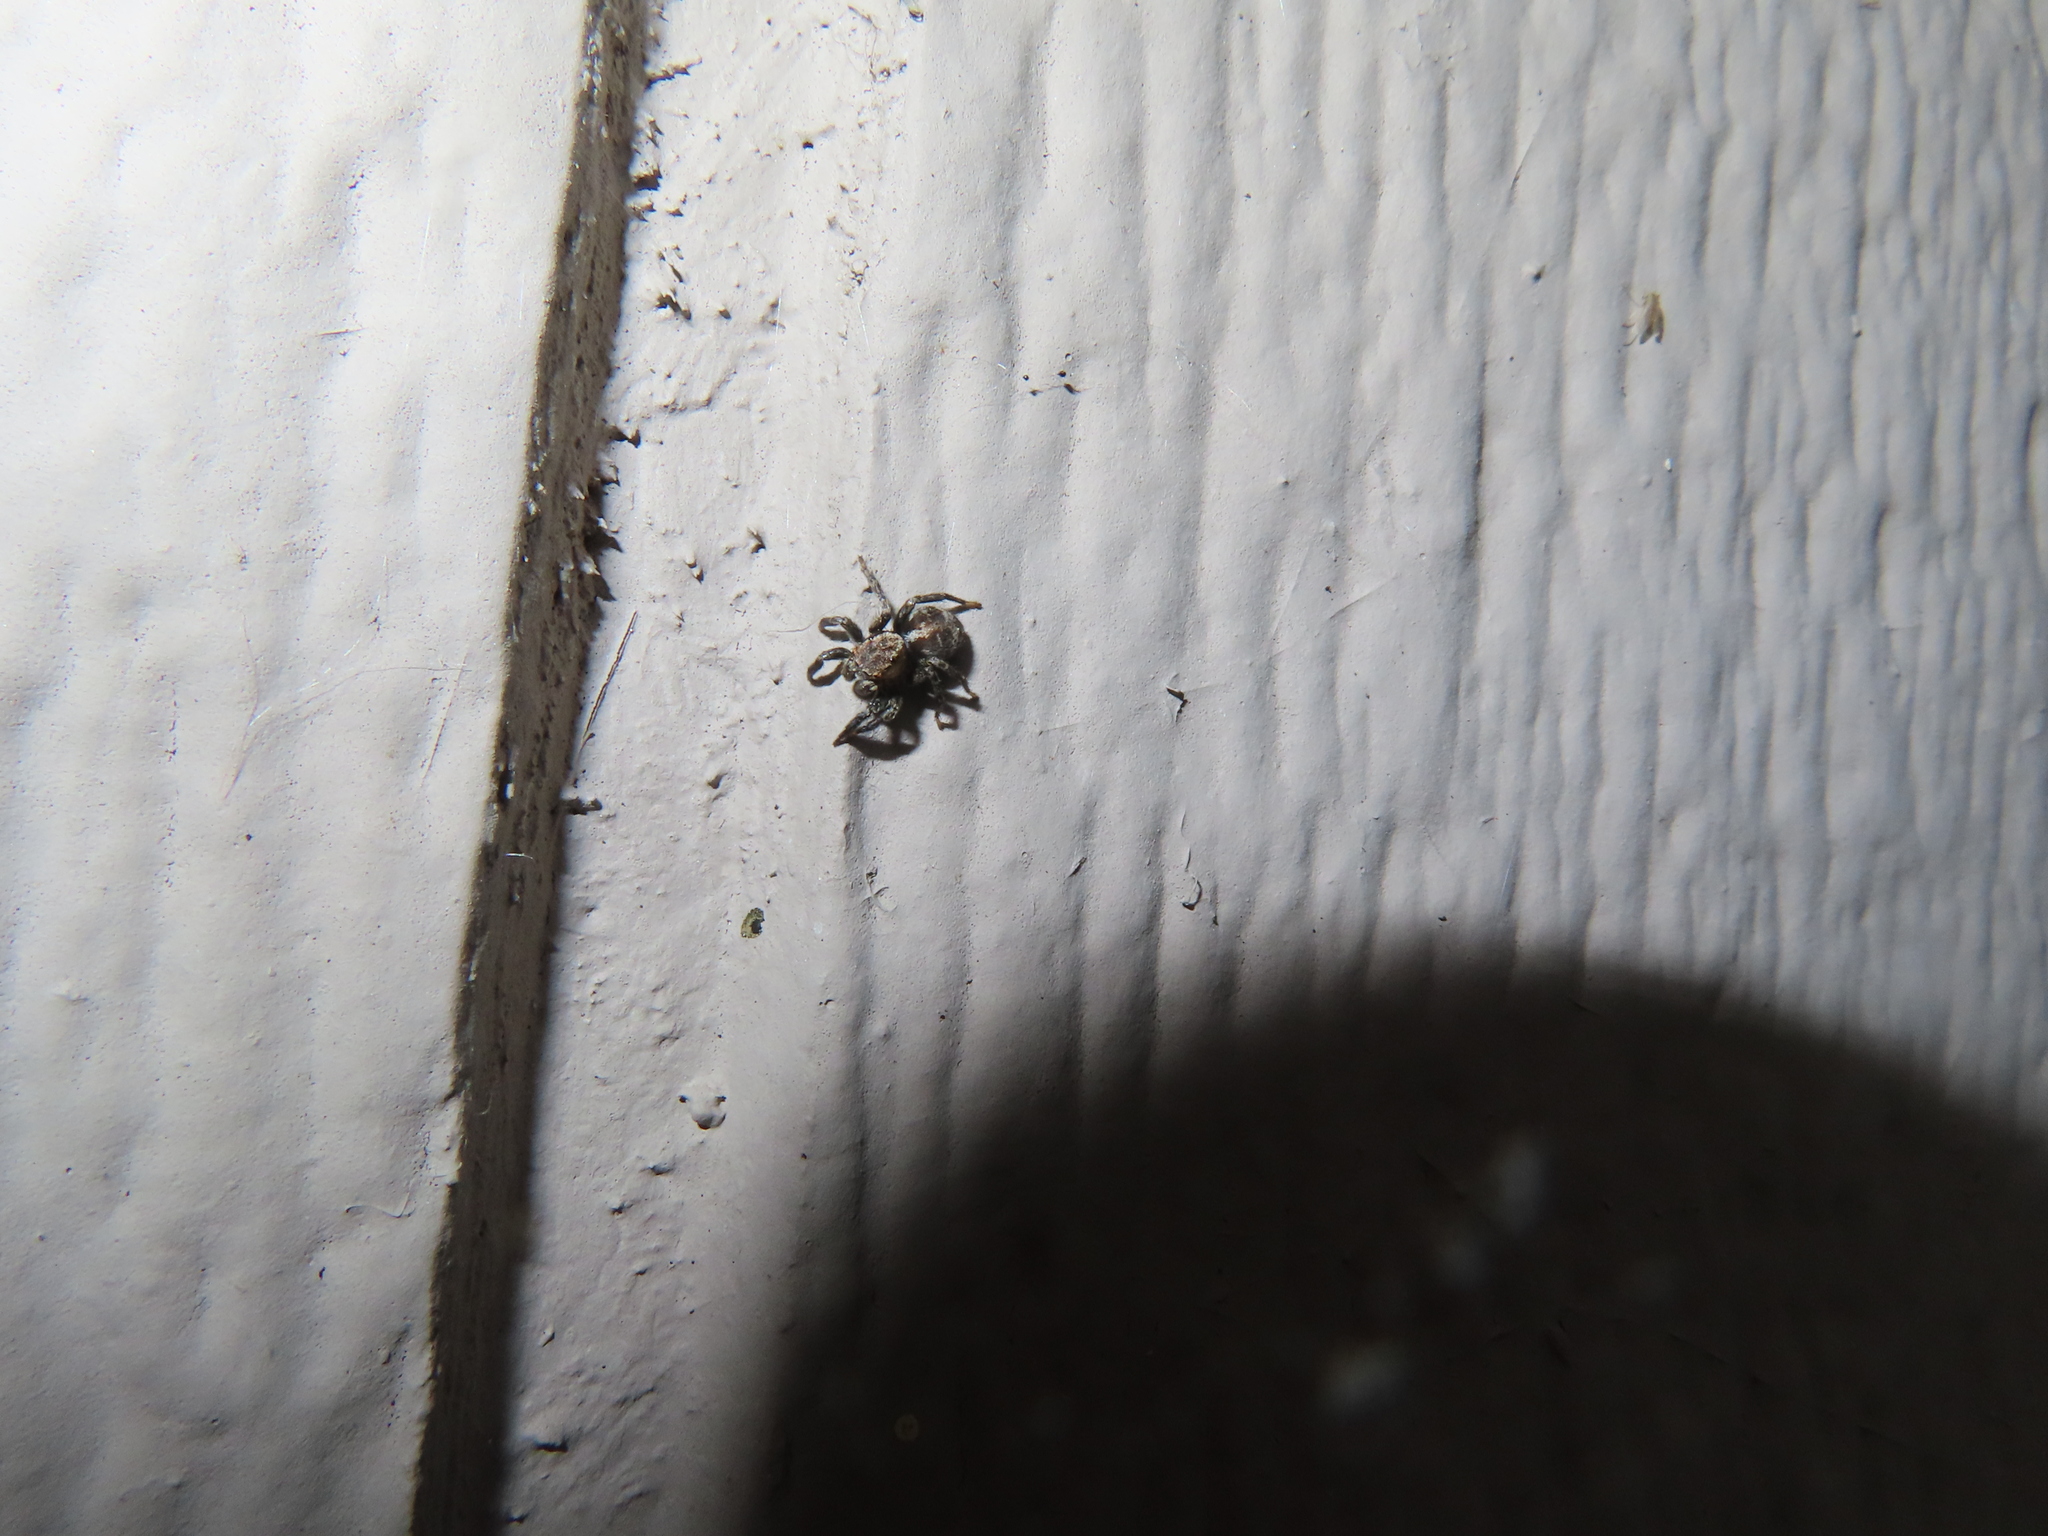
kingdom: Animalia
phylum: Arthropoda
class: Arachnida
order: Araneae
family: Salticidae
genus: Naphrys
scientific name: Naphrys pulex
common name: Flea jumping spider
